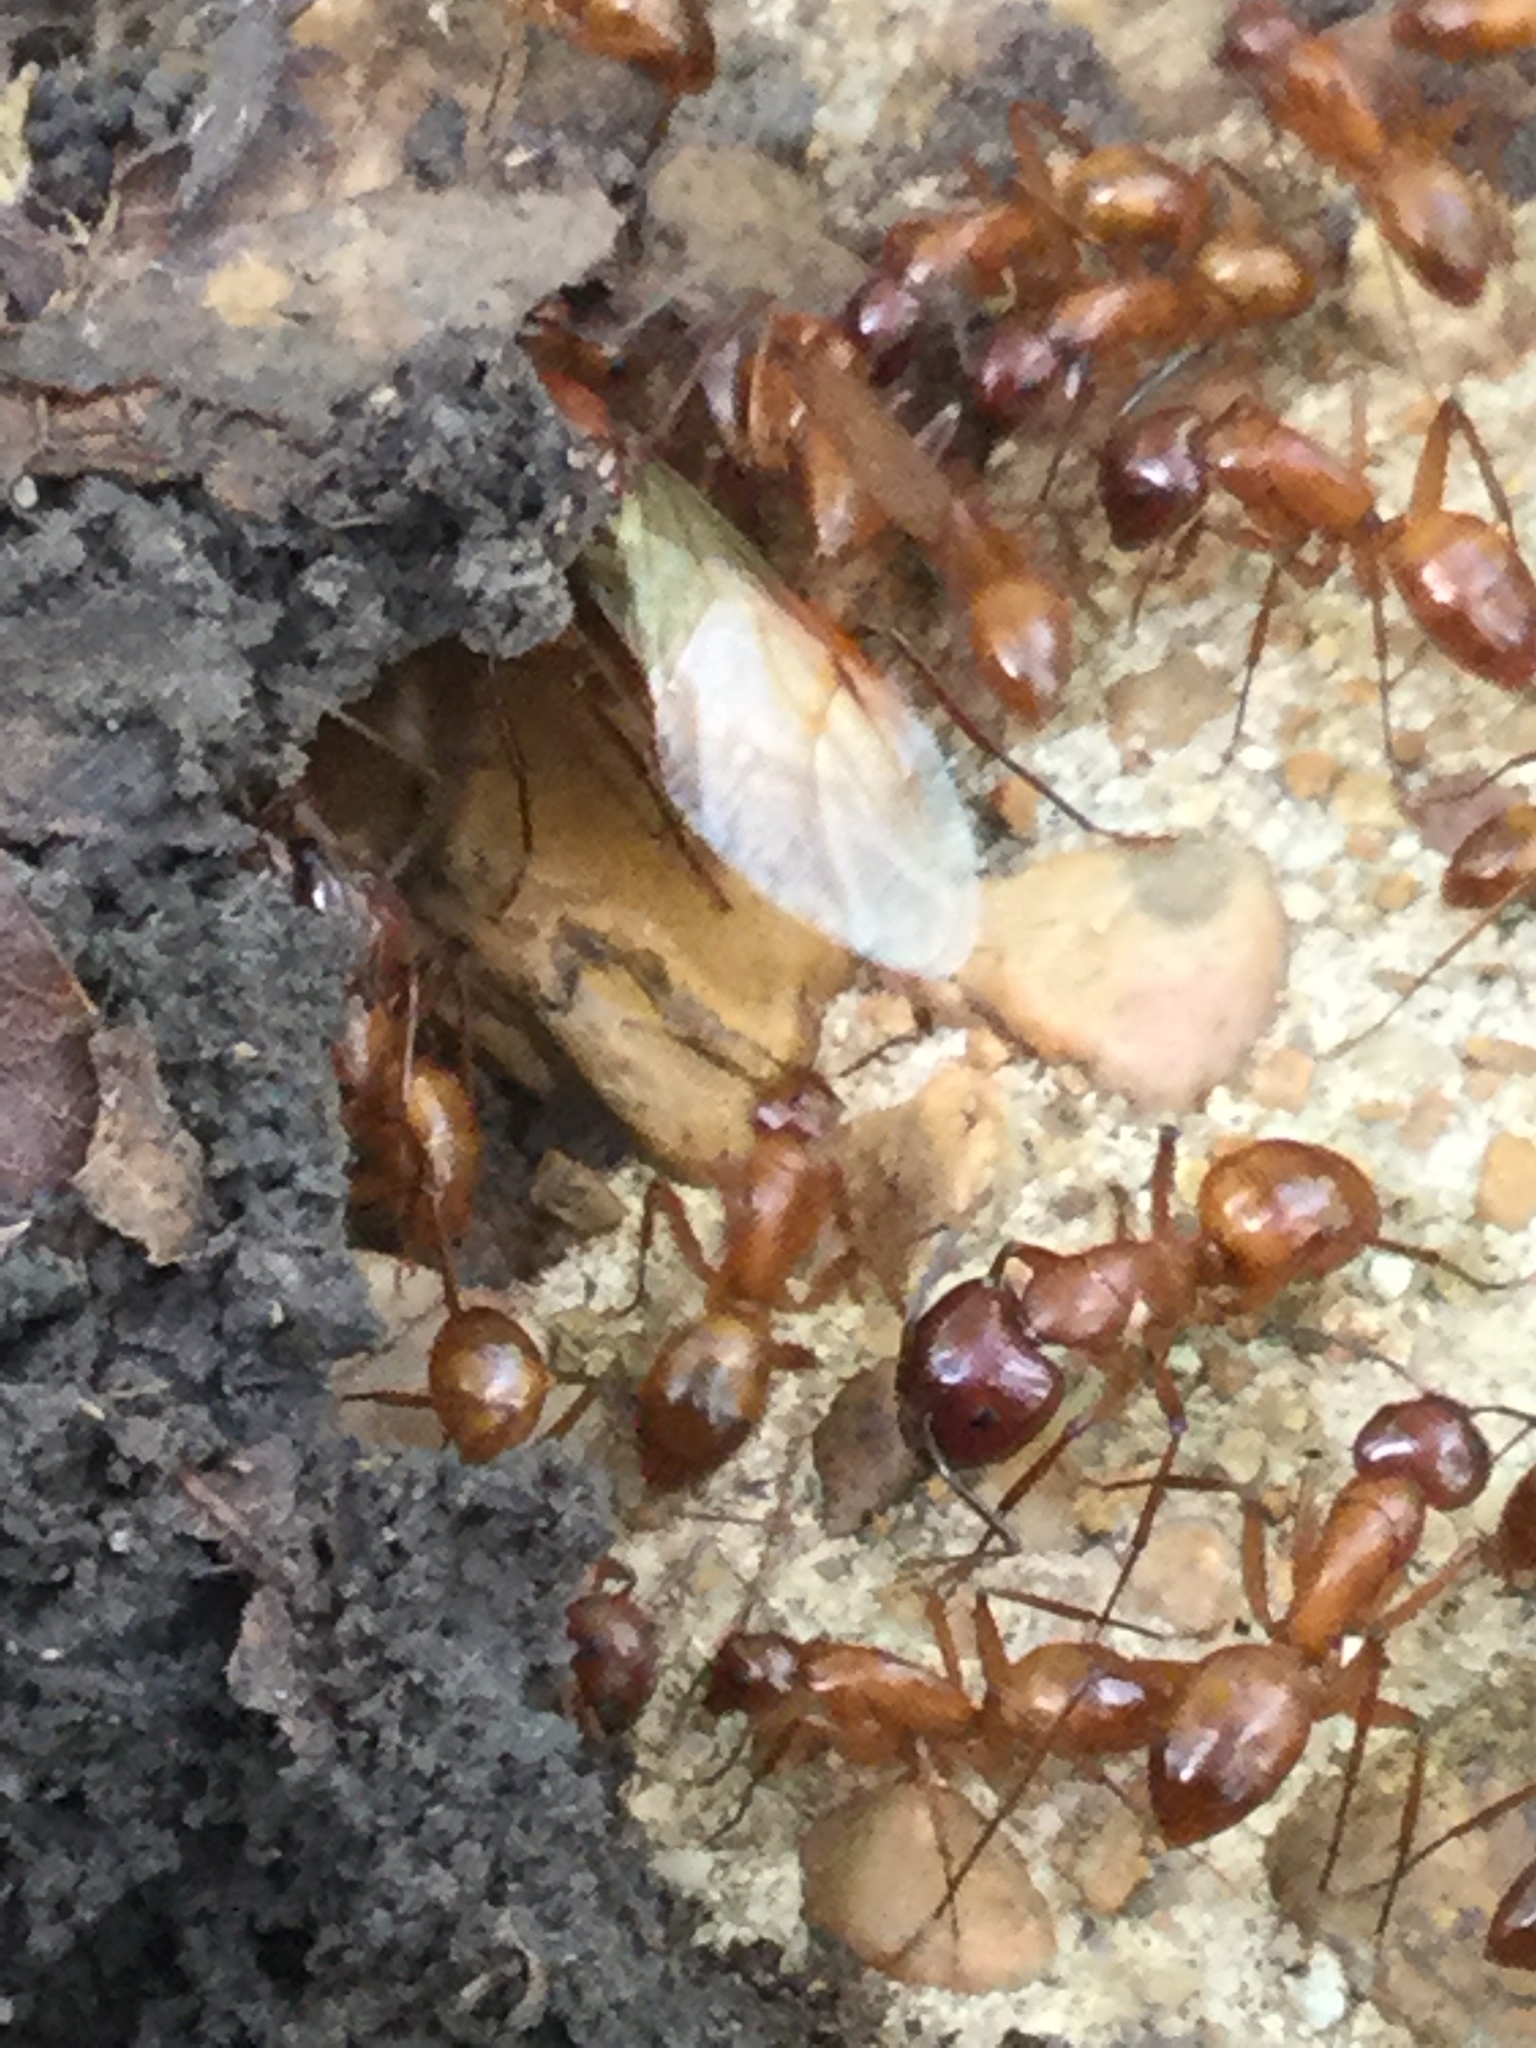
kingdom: Animalia
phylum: Arthropoda
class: Insecta
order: Hymenoptera
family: Formicidae
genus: Camponotus
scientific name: Camponotus castaneus
